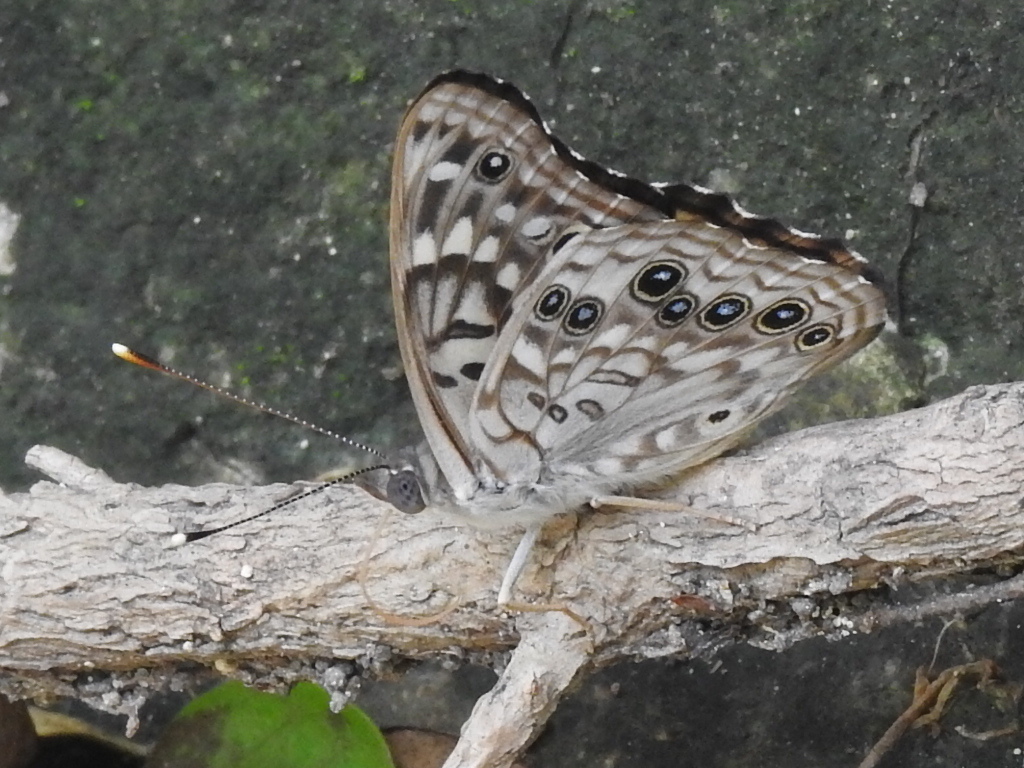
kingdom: Animalia
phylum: Arthropoda
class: Insecta
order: Lepidoptera
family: Nymphalidae
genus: Asterocampa
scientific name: Asterocampa celtis
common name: Hackberry emperor
